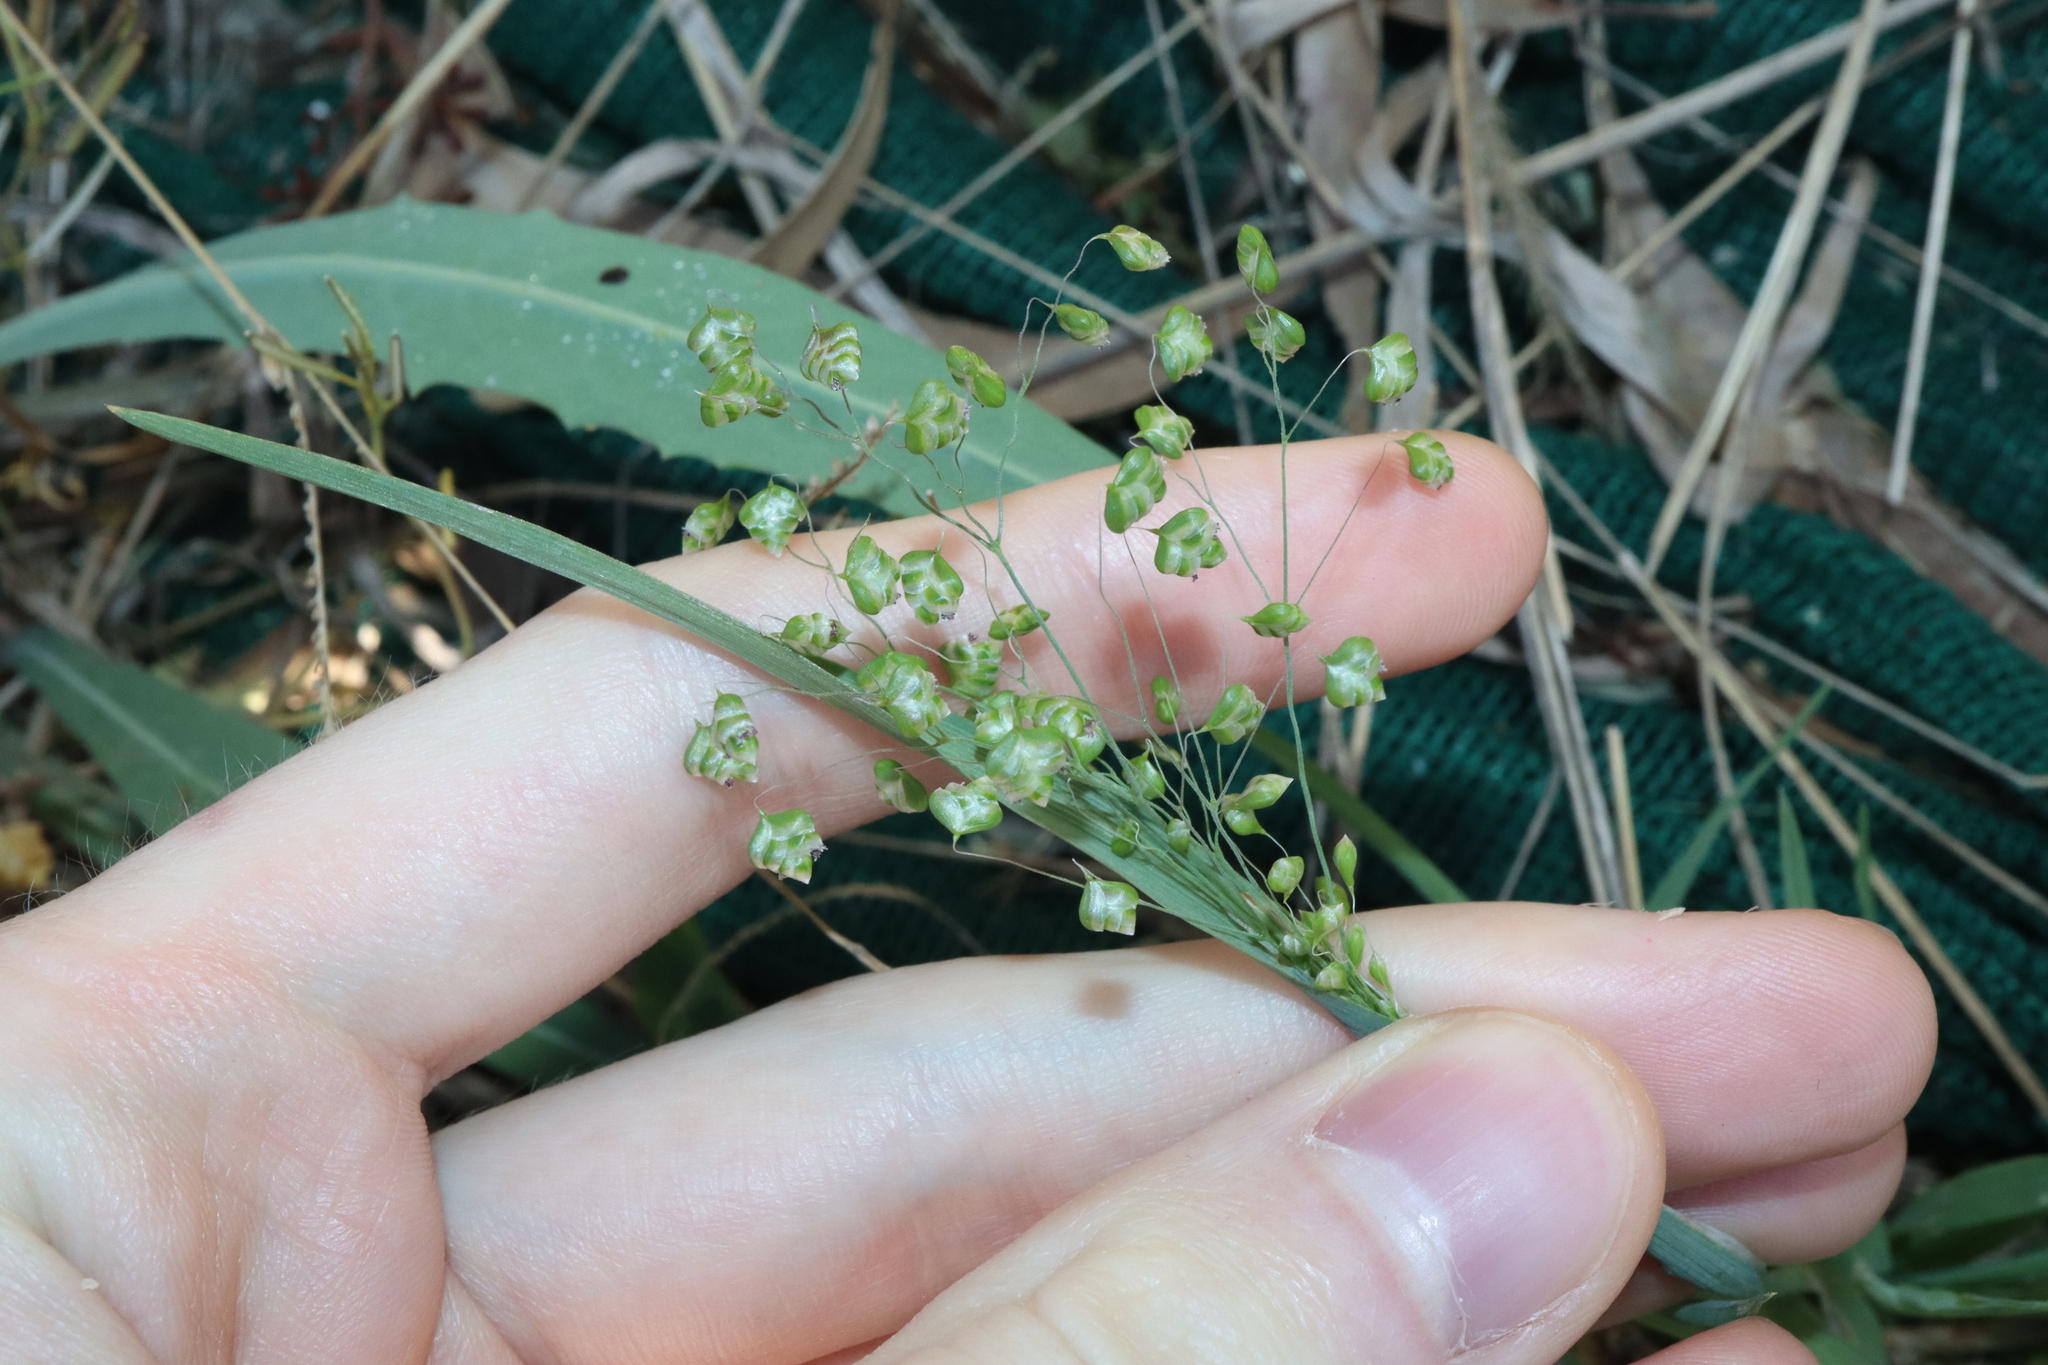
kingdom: Plantae
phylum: Tracheophyta
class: Liliopsida
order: Poales
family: Poaceae
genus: Briza
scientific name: Briza minor
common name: Lesser quaking-grass
